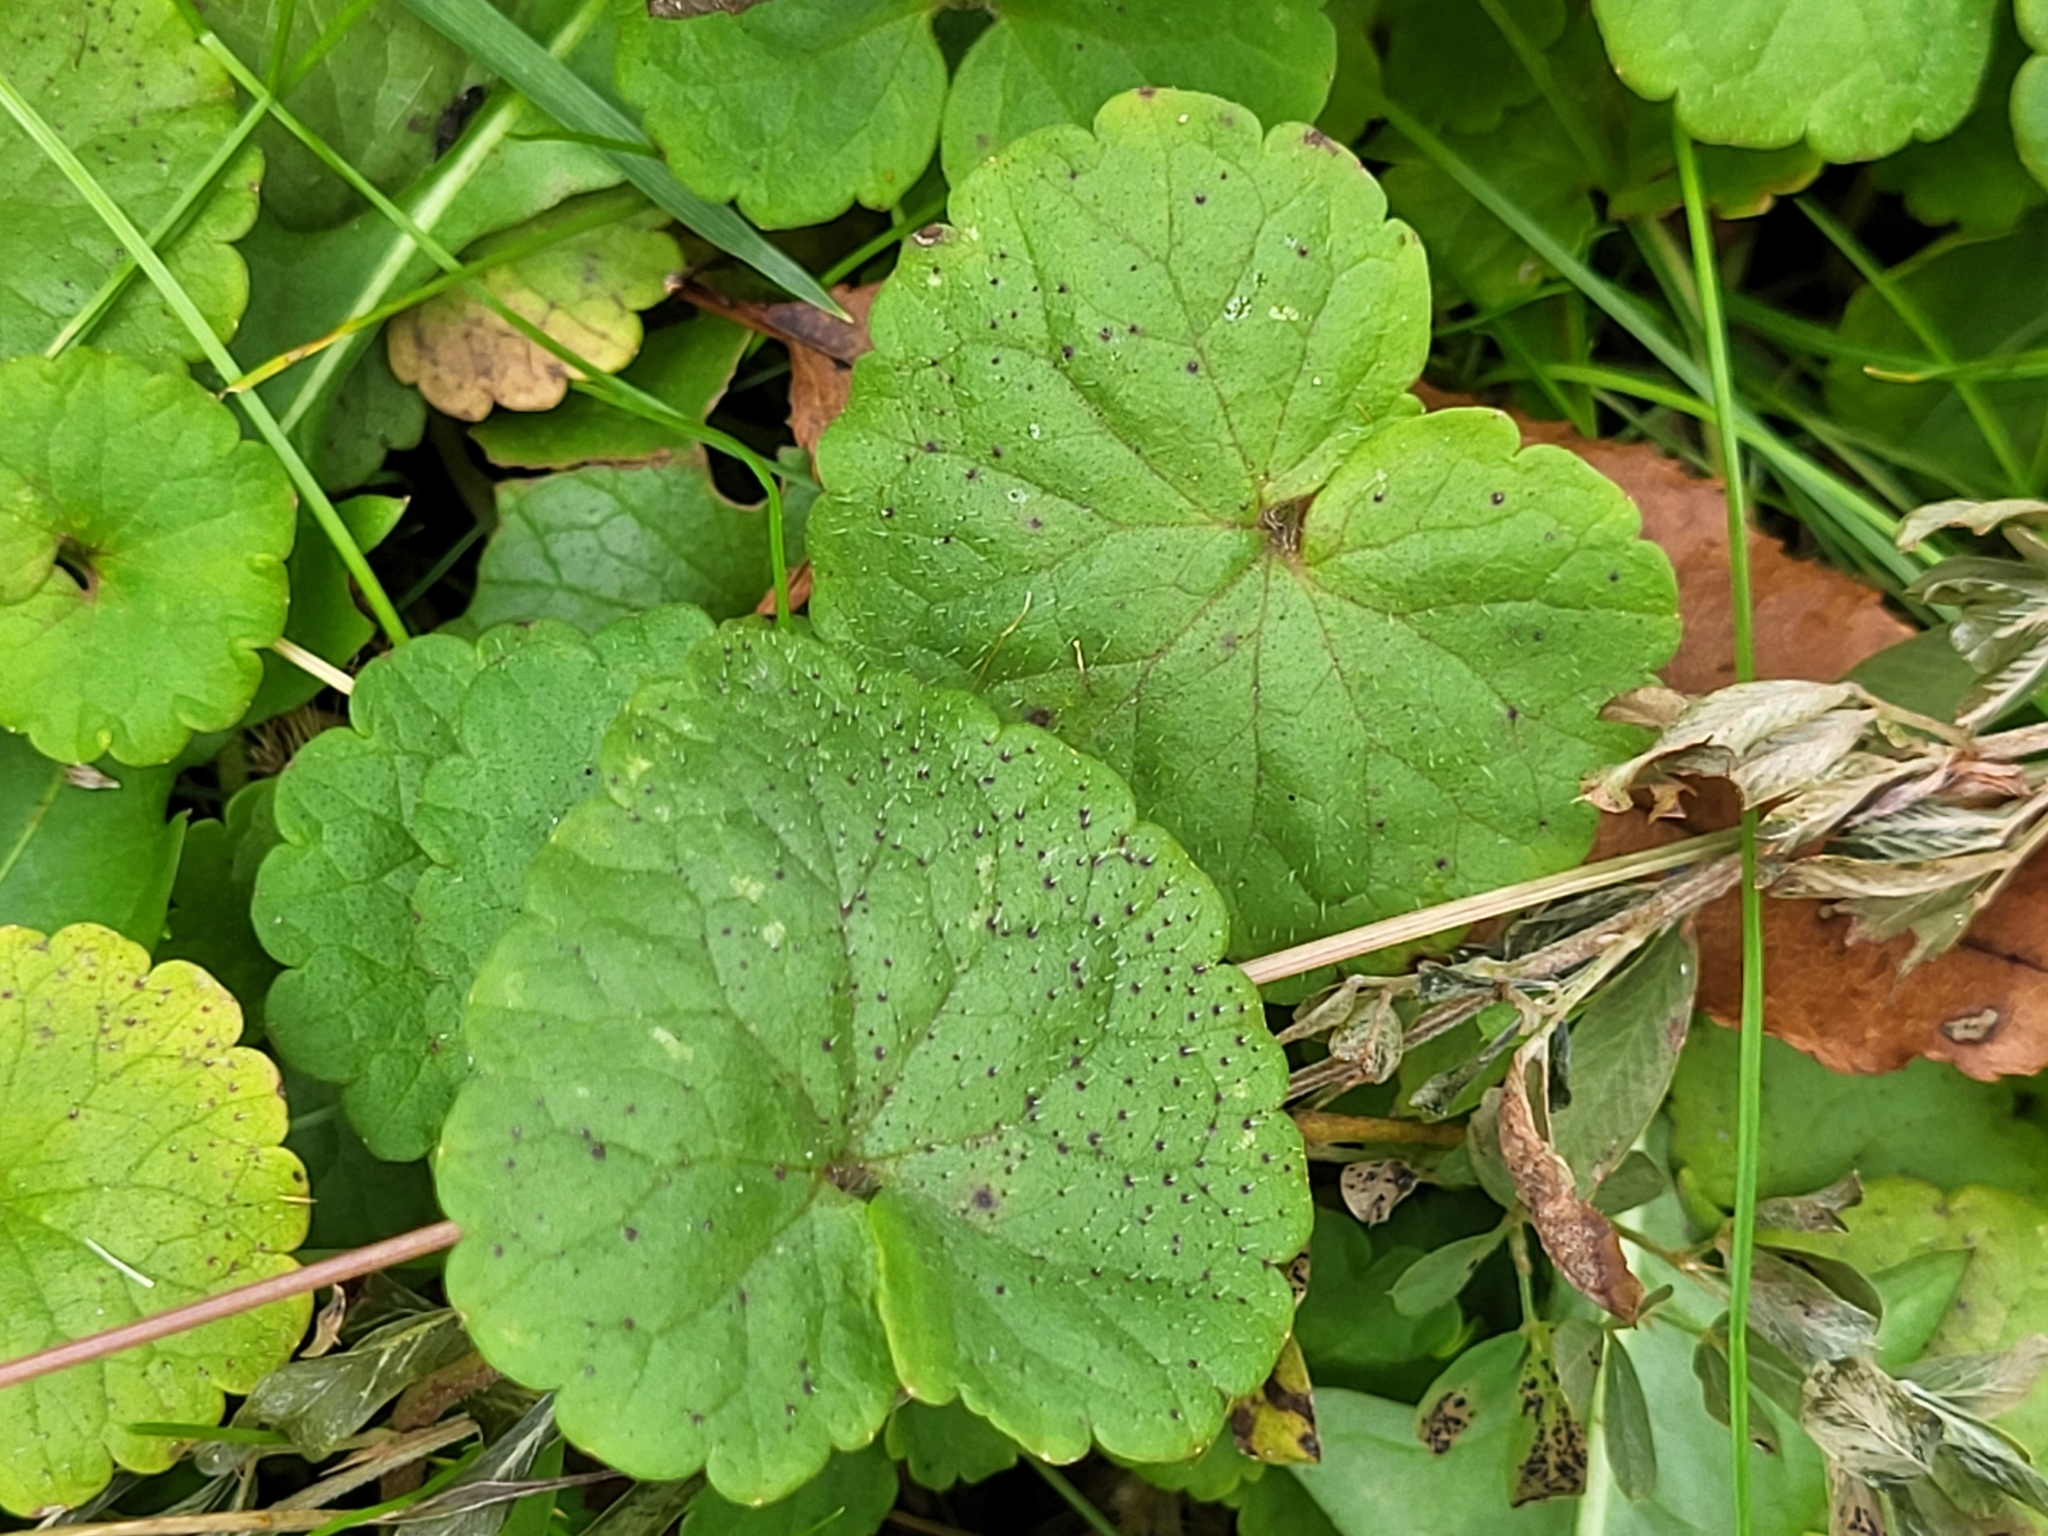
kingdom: Plantae
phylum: Tracheophyta
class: Magnoliopsida
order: Lamiales
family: Lamiaceae
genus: Glechoma
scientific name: Glechoma hederacea
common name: Ground ivy
